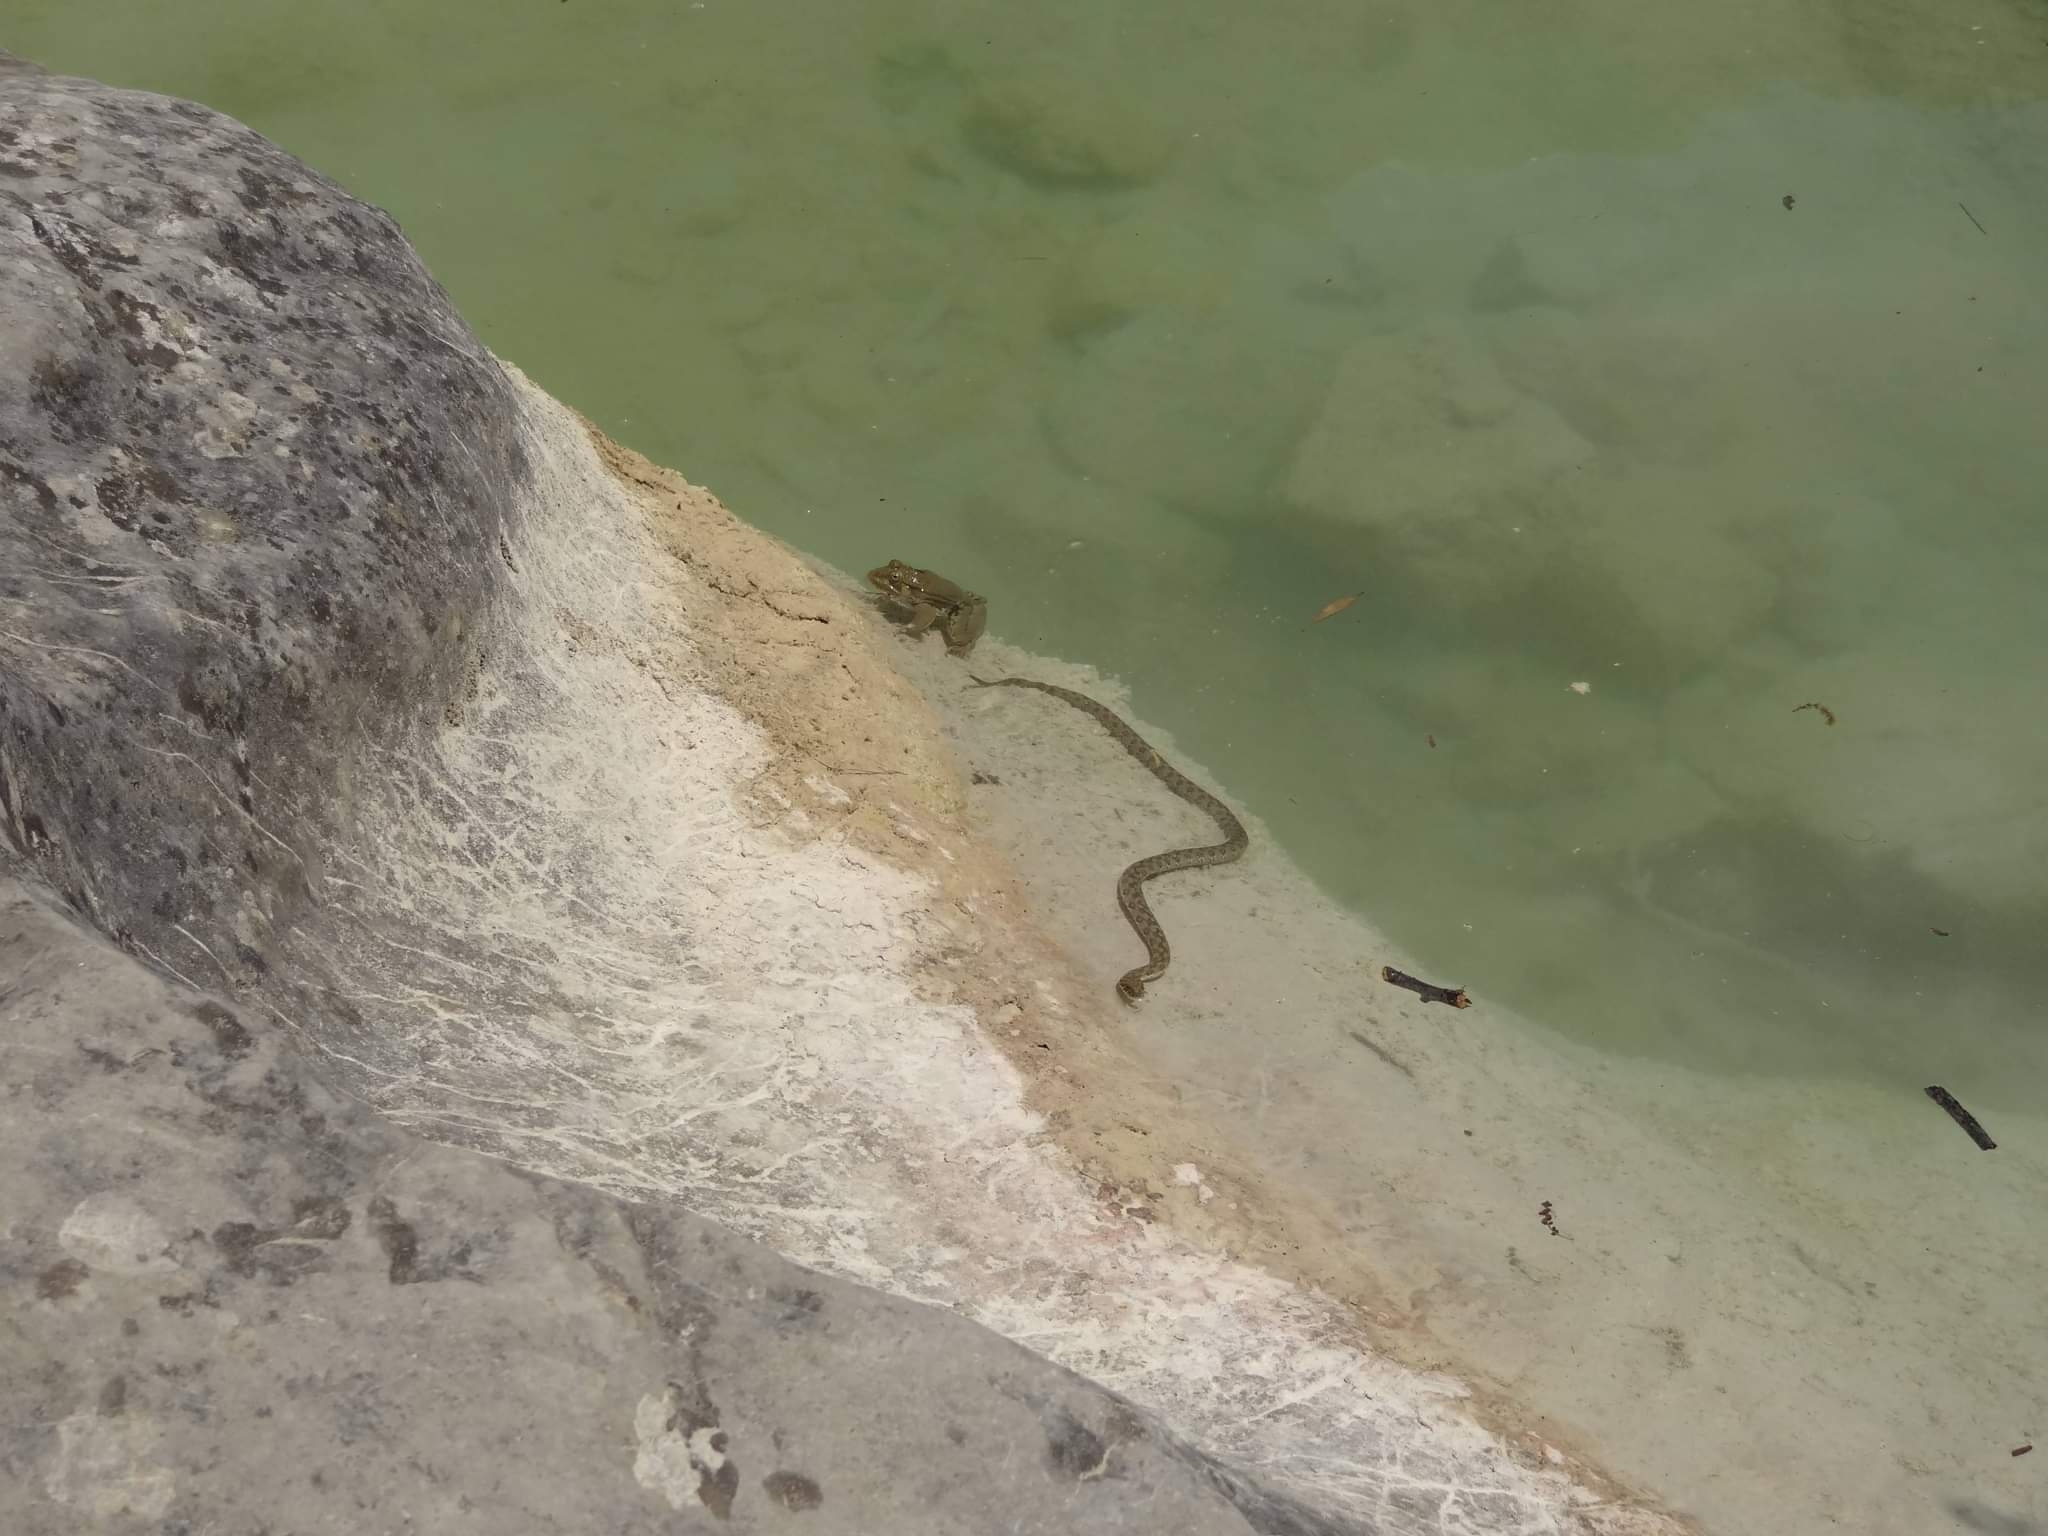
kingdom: Animalia
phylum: Chordata
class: Squamata
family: Colubridae
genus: Natrix
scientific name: Natrix maura
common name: Viperine water snake
